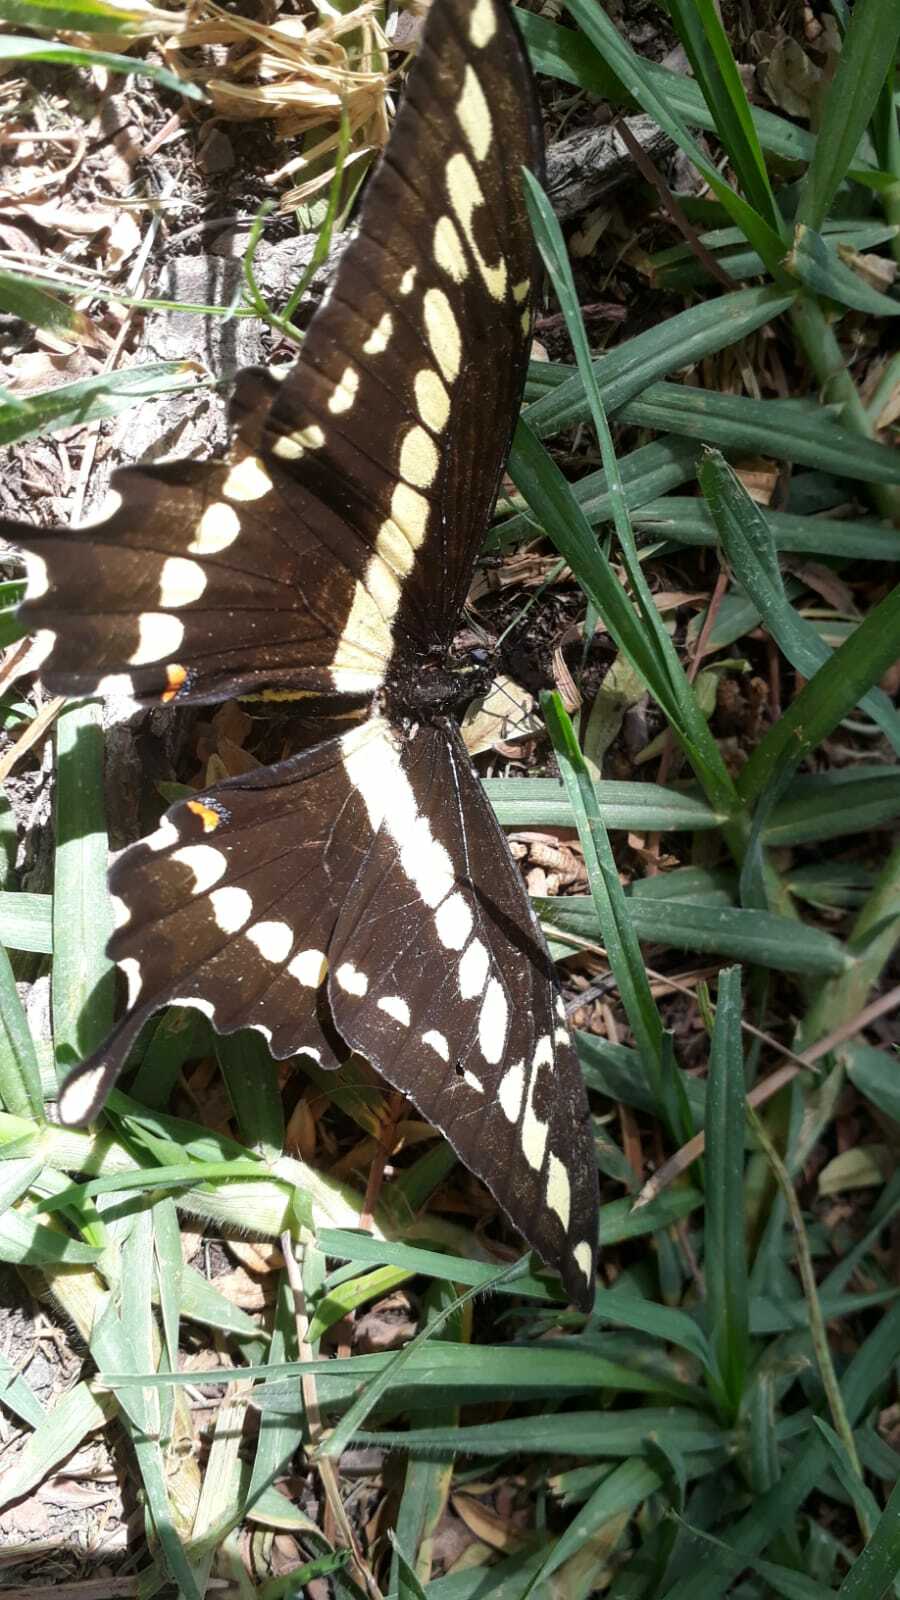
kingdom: Animalia
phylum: Arthropoda
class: Insecta
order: Lepidoptera
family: Papilionidae
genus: Papilio
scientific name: Papilio thoas
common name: King swallowtail
